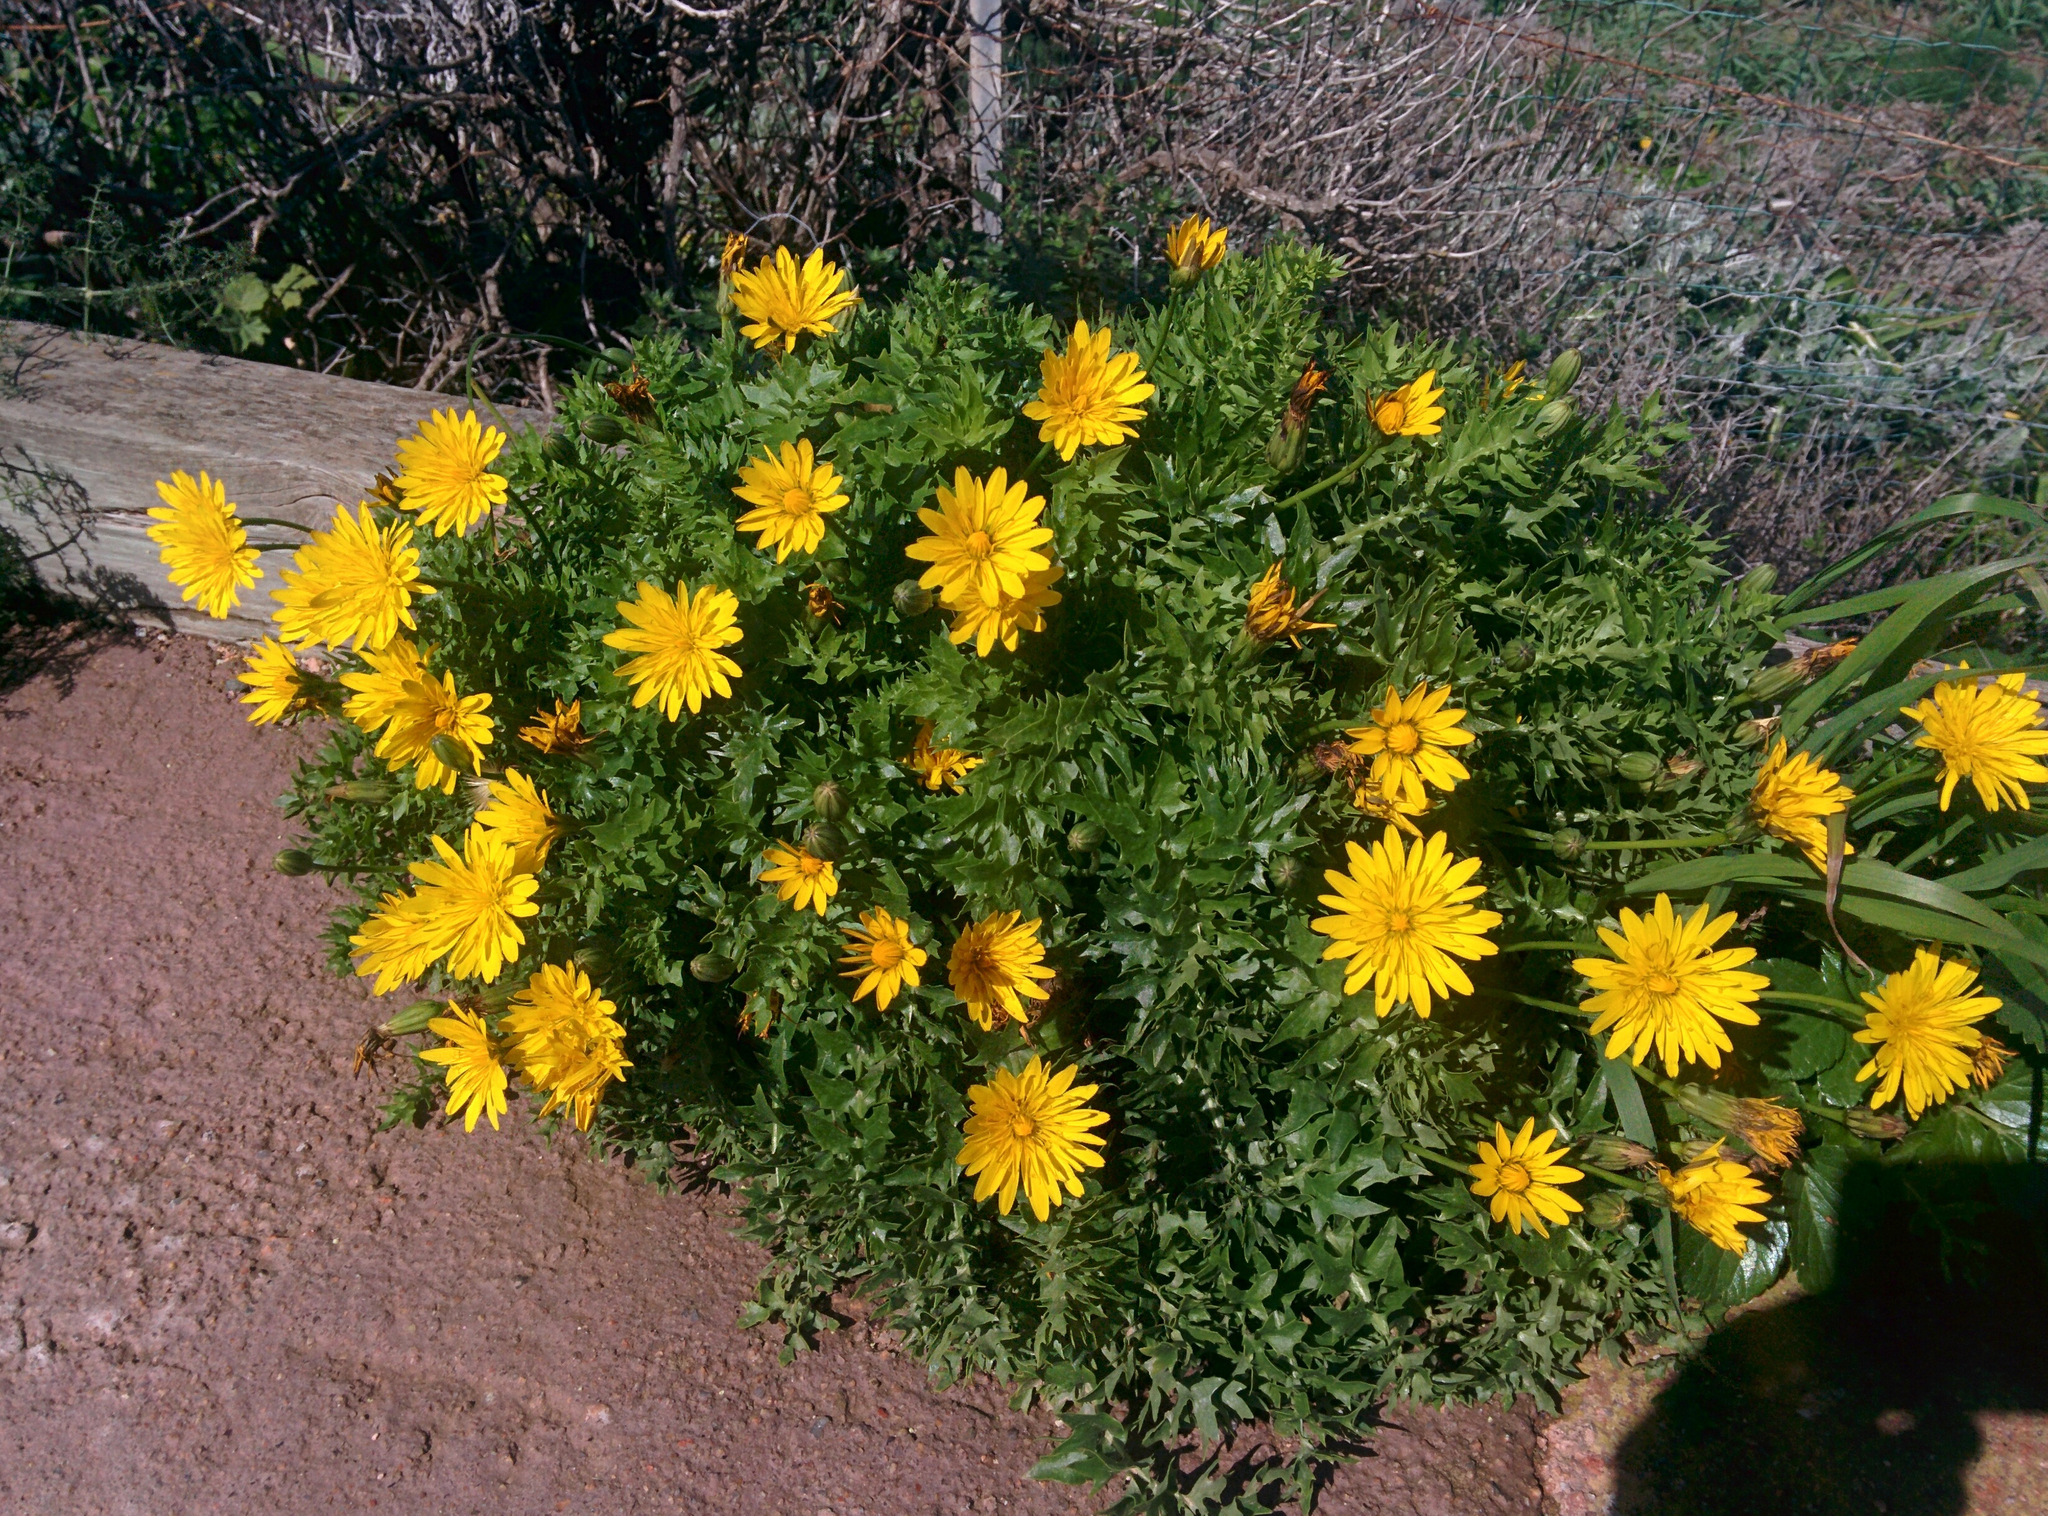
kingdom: Plantae
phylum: Tracheophyta
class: Magnoliopsida
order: Asterales
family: Asteraceae
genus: Hyoseris
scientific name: Hyoseris radiata
